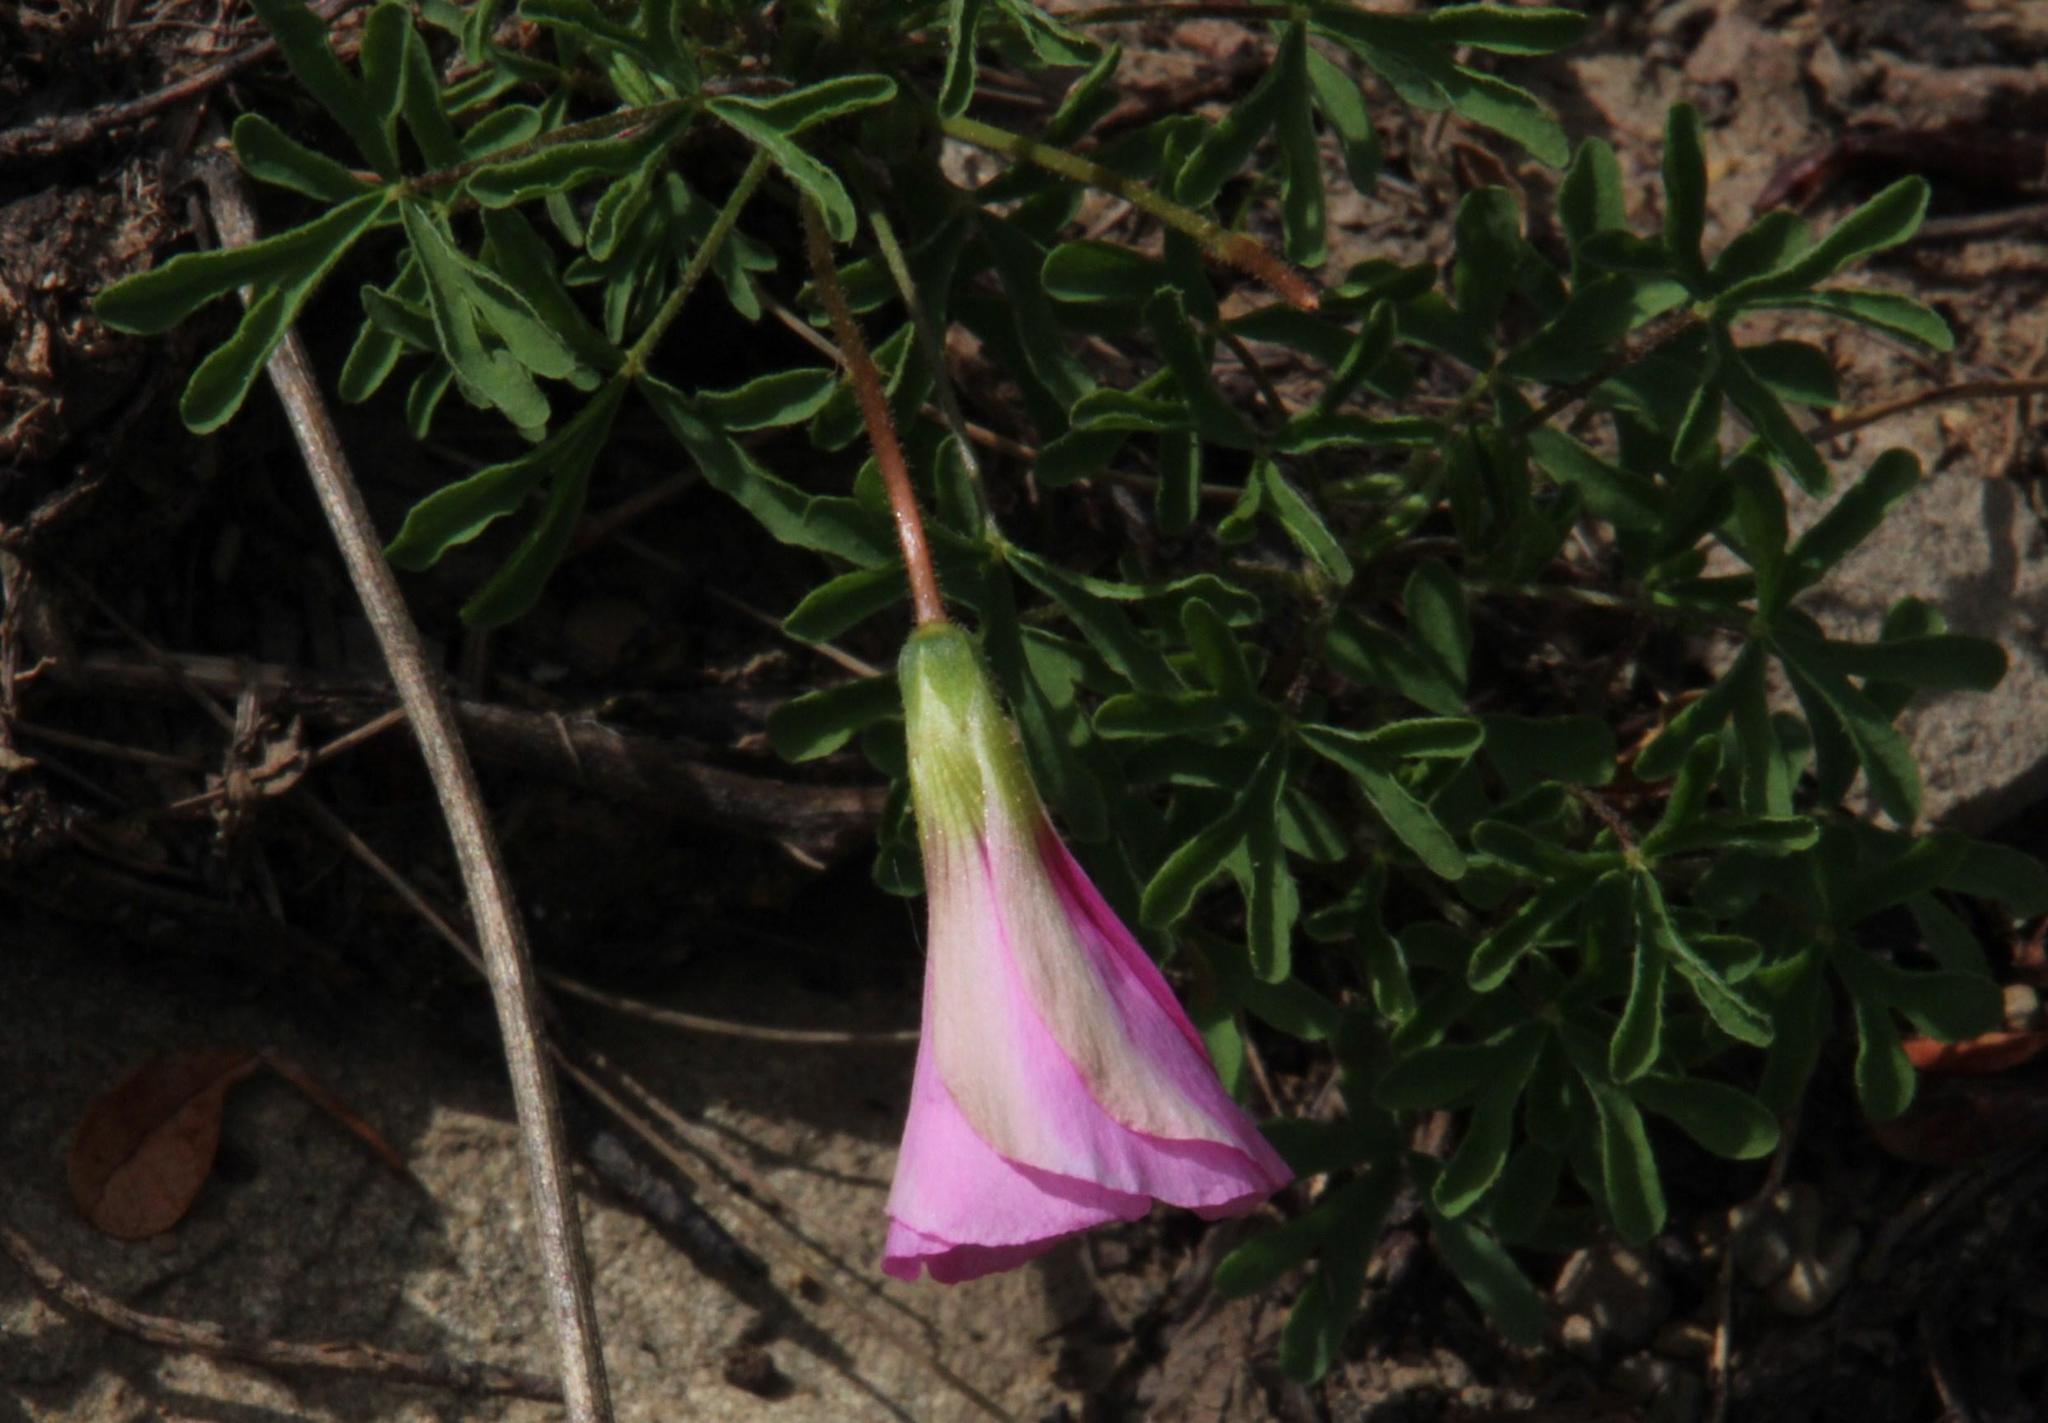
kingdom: Plantae
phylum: Tracheophyta
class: Magnoliopsida
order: Oxalidales
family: Oxalidaceae
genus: Oxalis
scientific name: Oxalis bifurca
